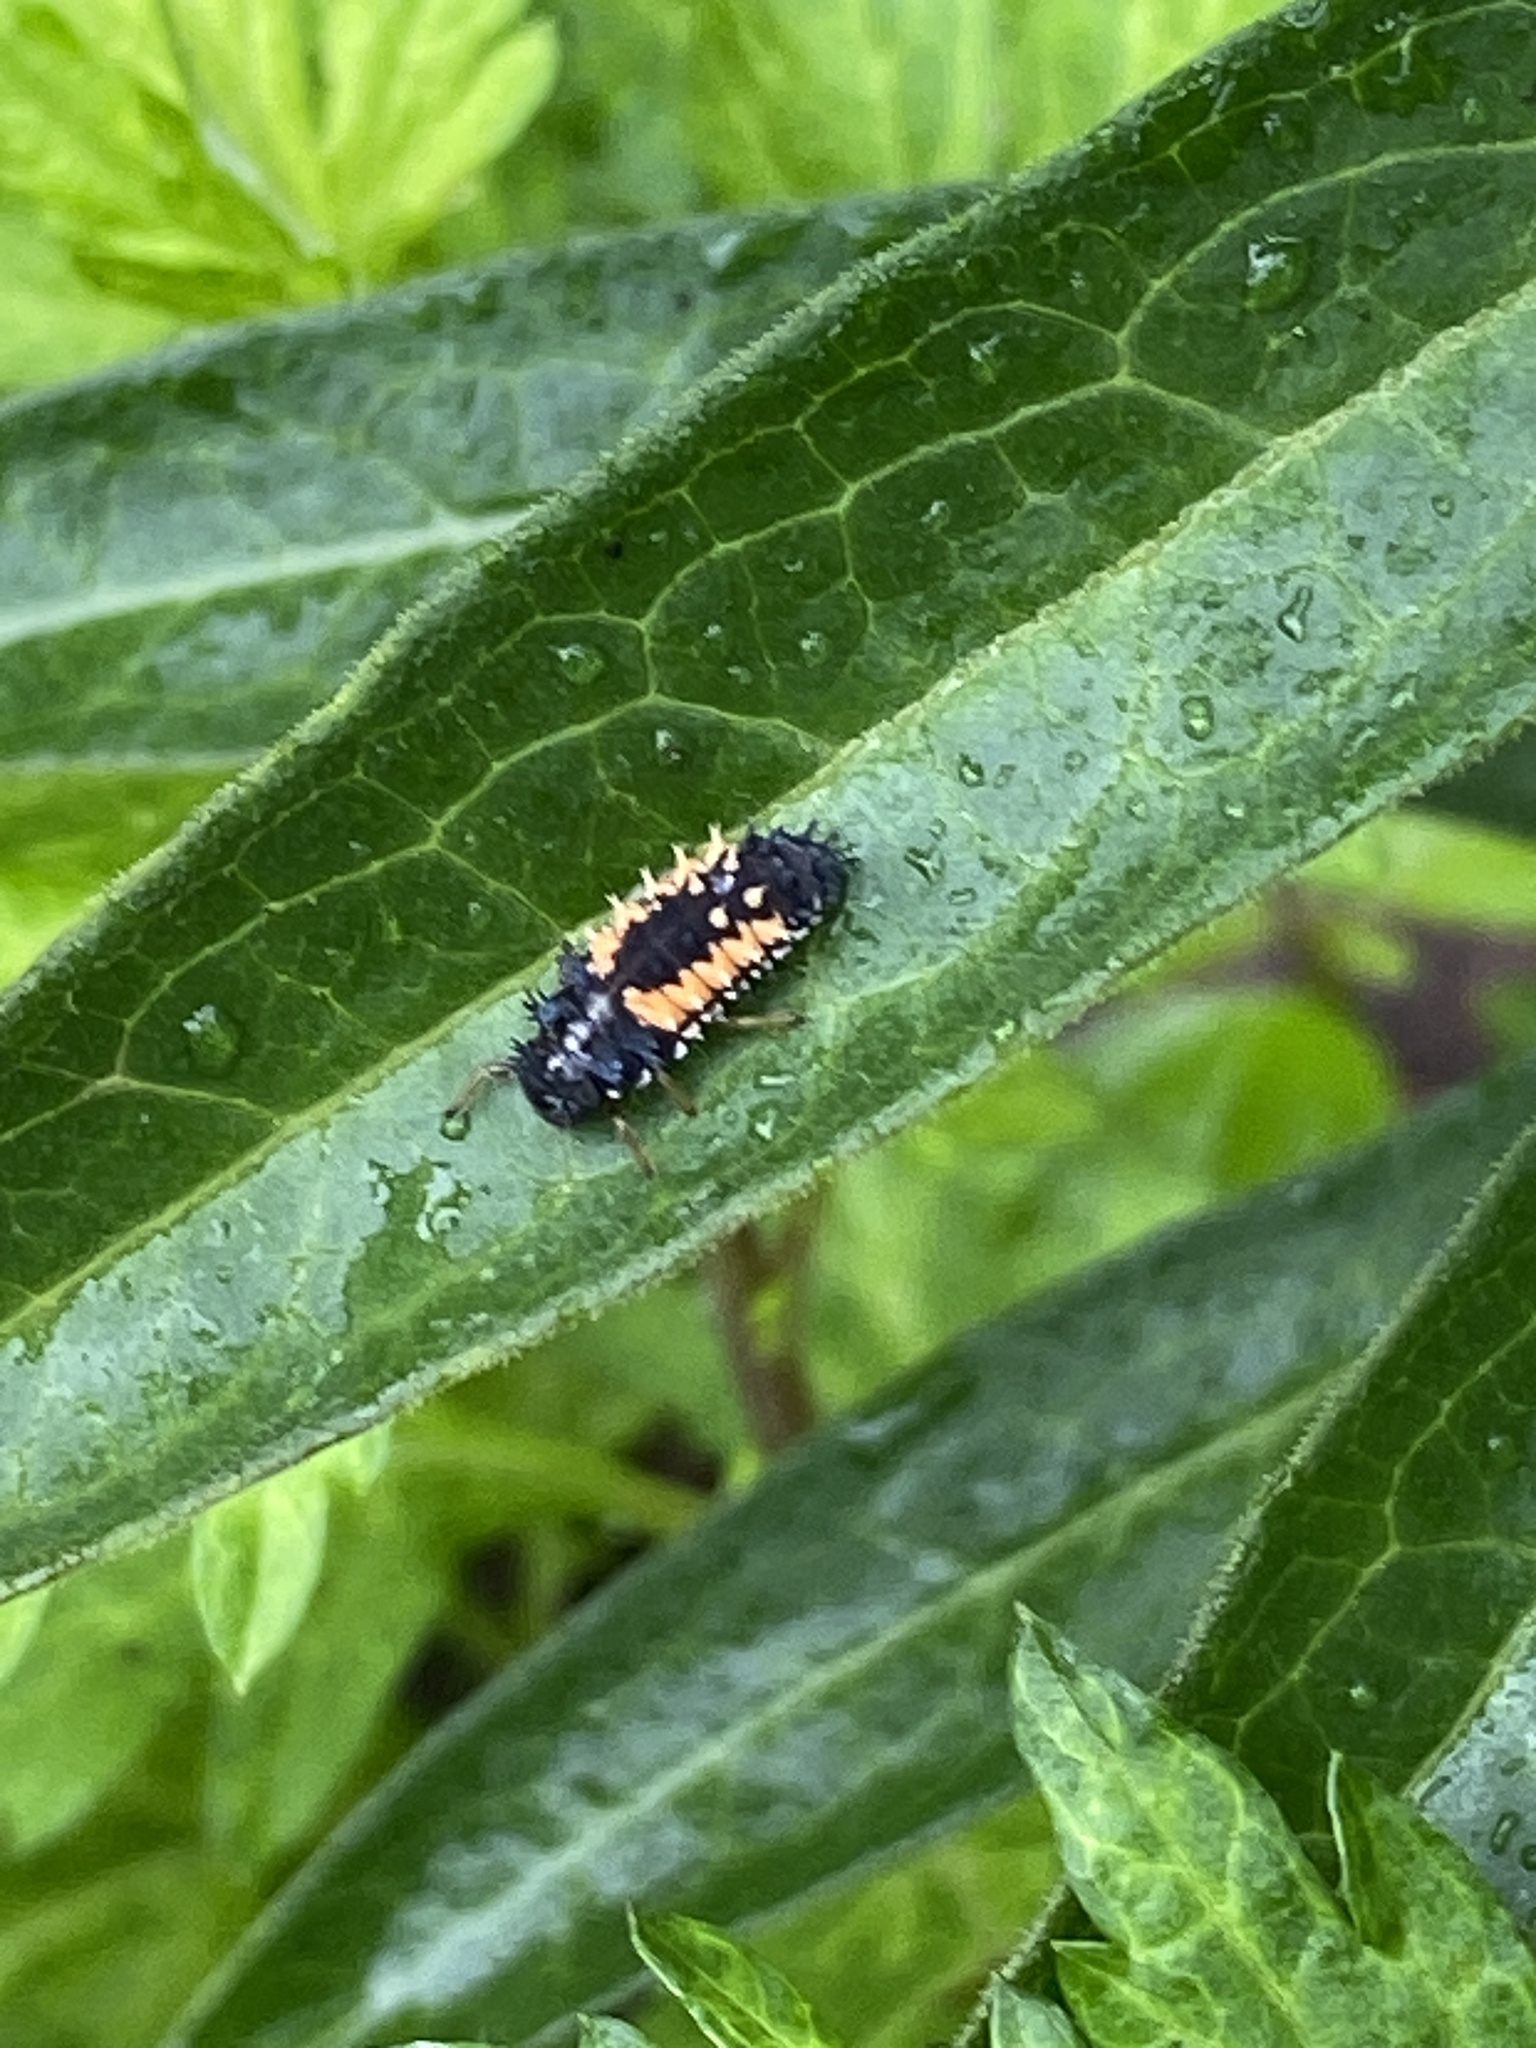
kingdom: Animalia
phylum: Arthropoda
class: Insecta
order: Coleoptera
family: Coccinellidae
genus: Harmonia
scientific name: Harmonia axyridis
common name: Harlequin ladybird
